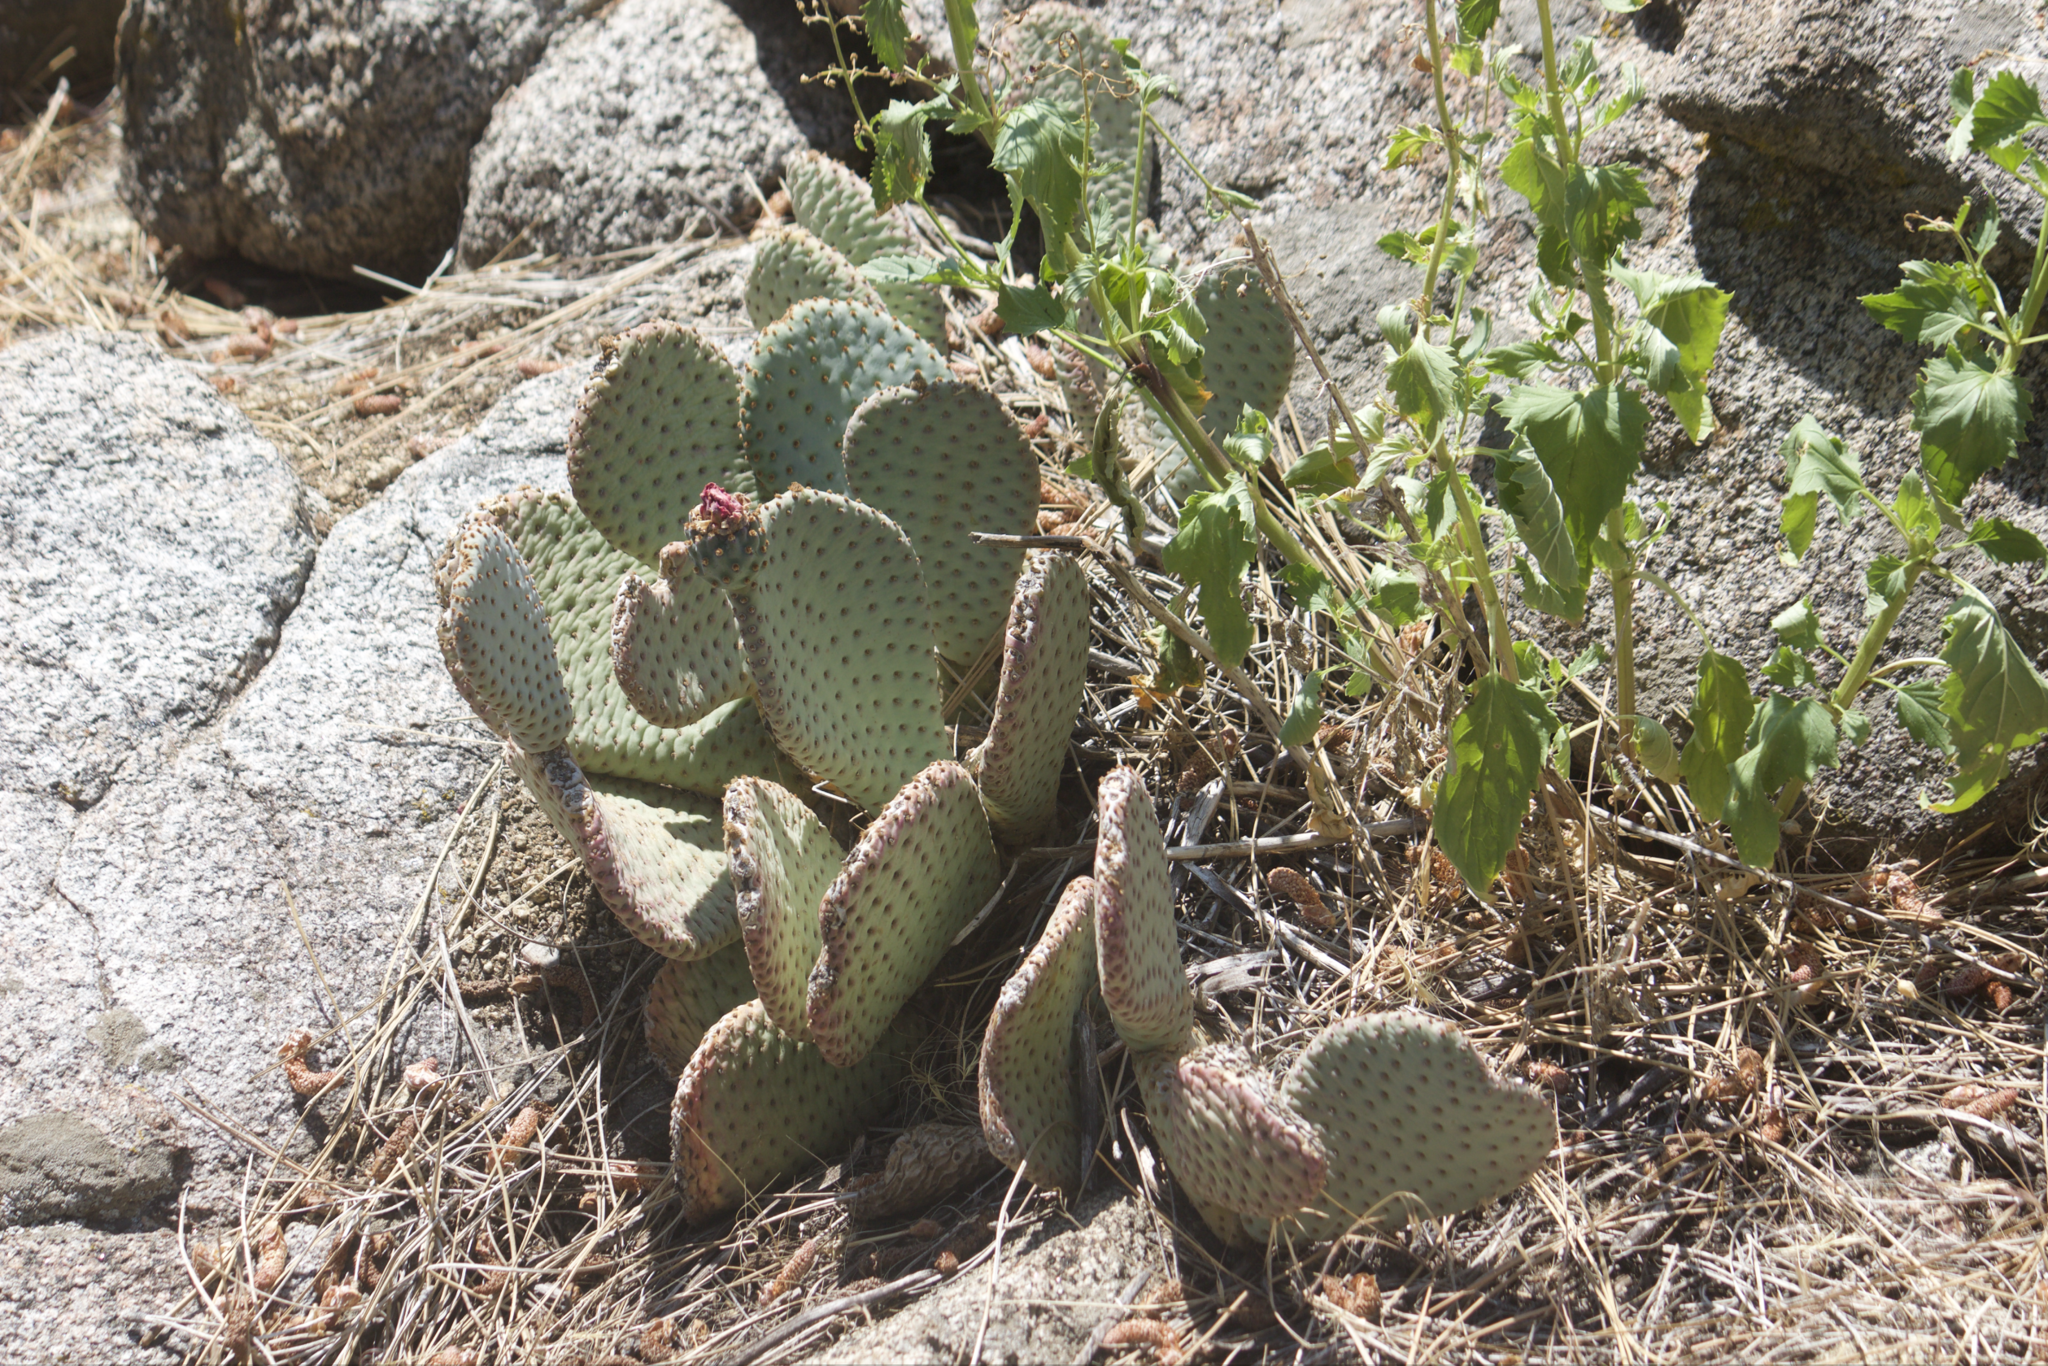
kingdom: Plantae
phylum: Tracheophyta
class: Magnoliopsida
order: Caryophyllales
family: Cactaceae
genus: Opuntia
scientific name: Opuntia basilaris
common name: Beavertail prickly-pear
